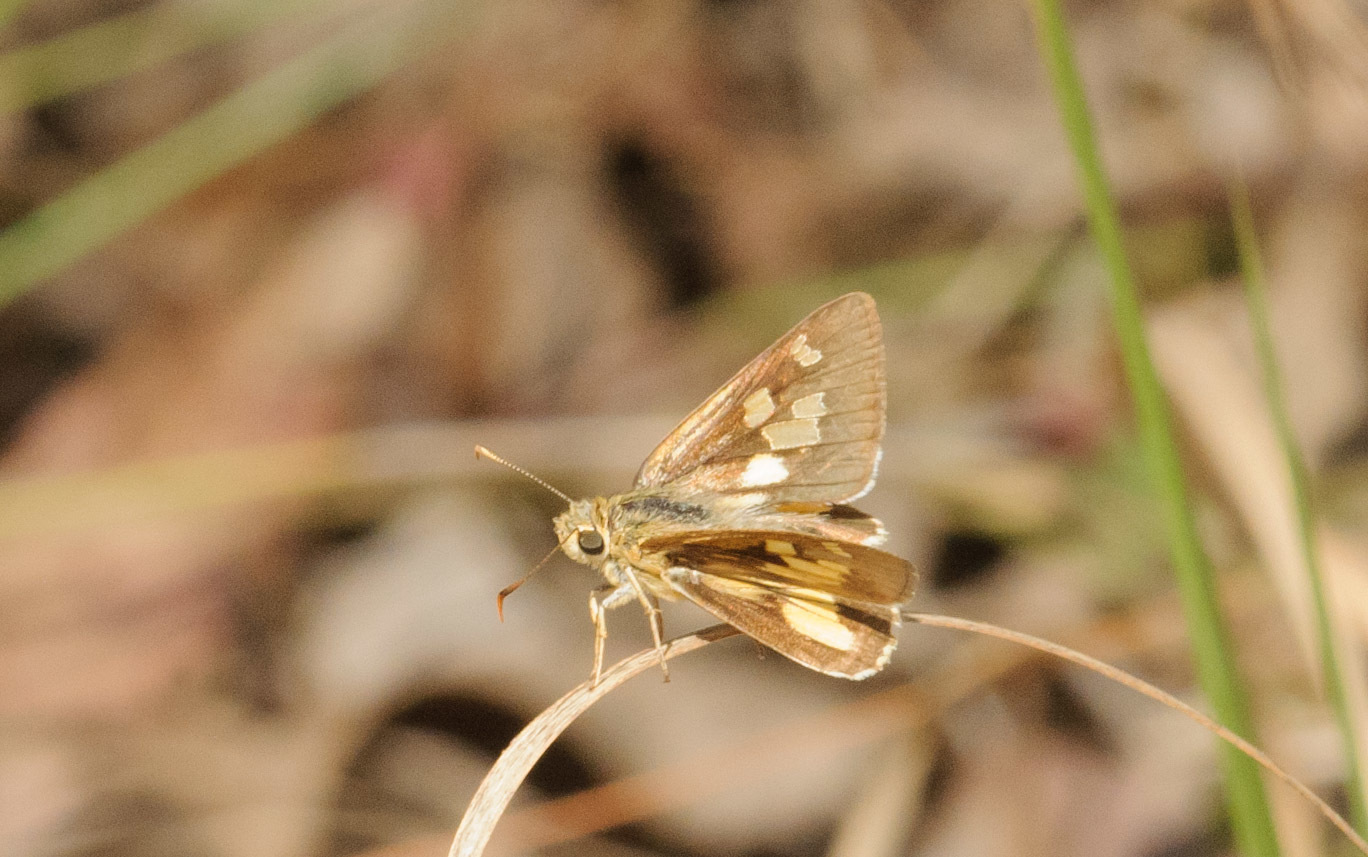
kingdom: Animalia
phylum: Arthropoda
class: Insecta
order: Lepidoptera
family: Hesperiidae
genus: Trapezites
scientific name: Trapezites eliena
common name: Eliena skipper
